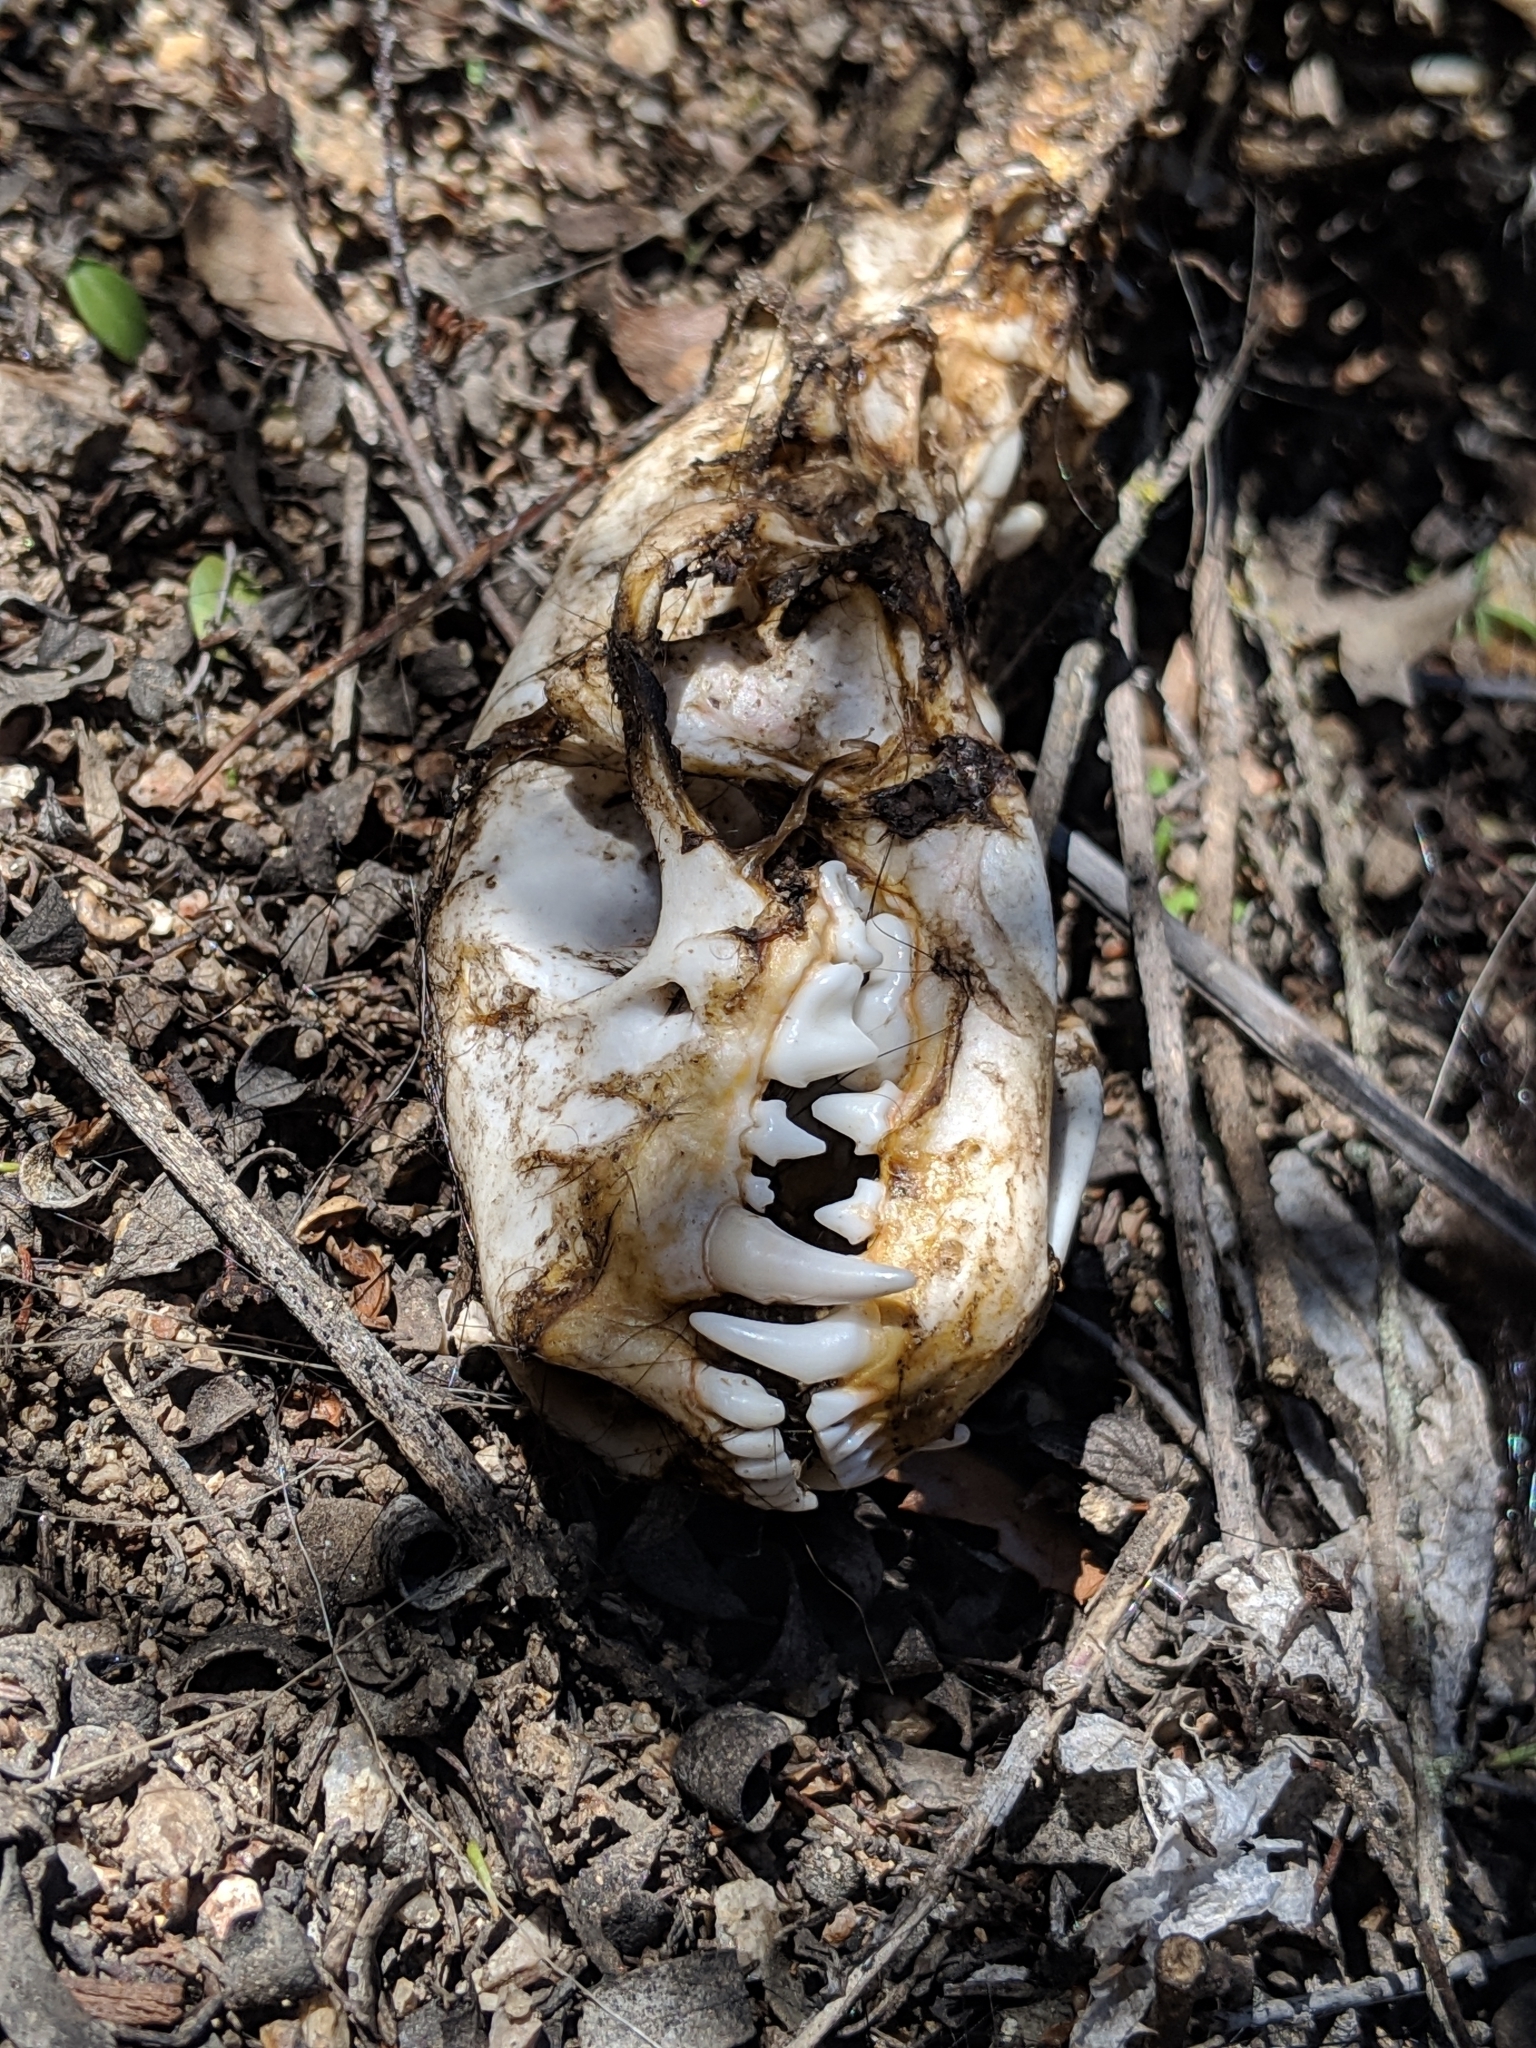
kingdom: Animalia
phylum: Chordata
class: Mammalia
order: Carnivora
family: Mustelidae
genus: Taxidea
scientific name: Taxidea taxus
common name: American badger
